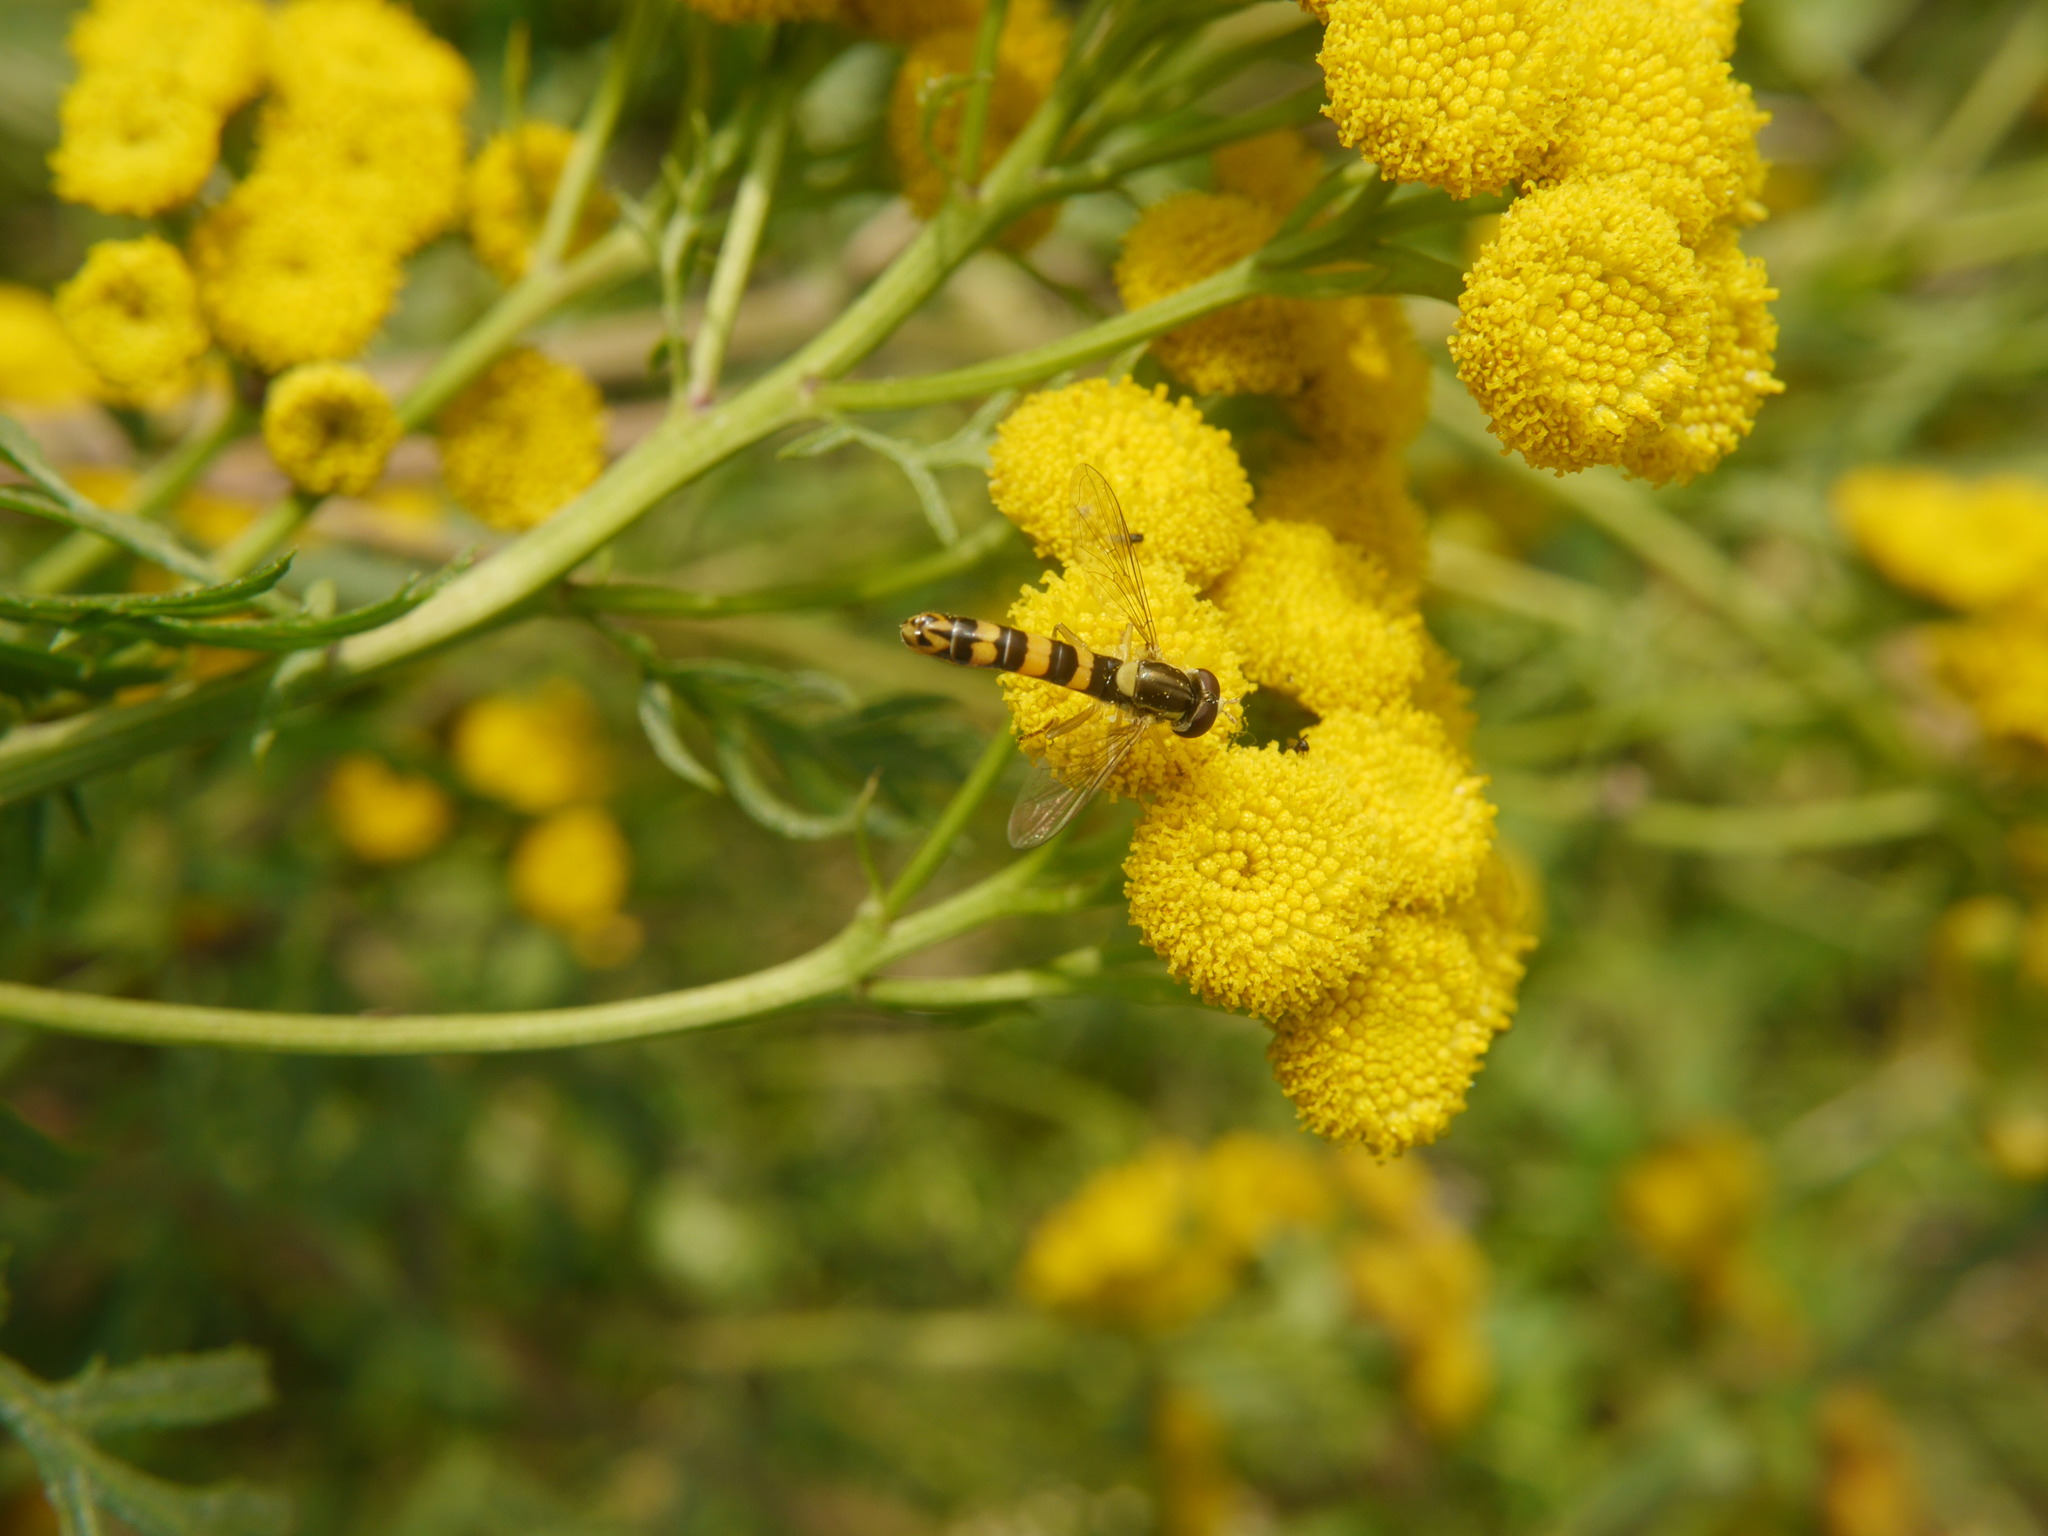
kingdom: Animalia
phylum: Arthropoda
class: Insecta
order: Diptera
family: Syrphidae
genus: Sphaerophoria
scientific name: Sphaerophoria scripta
